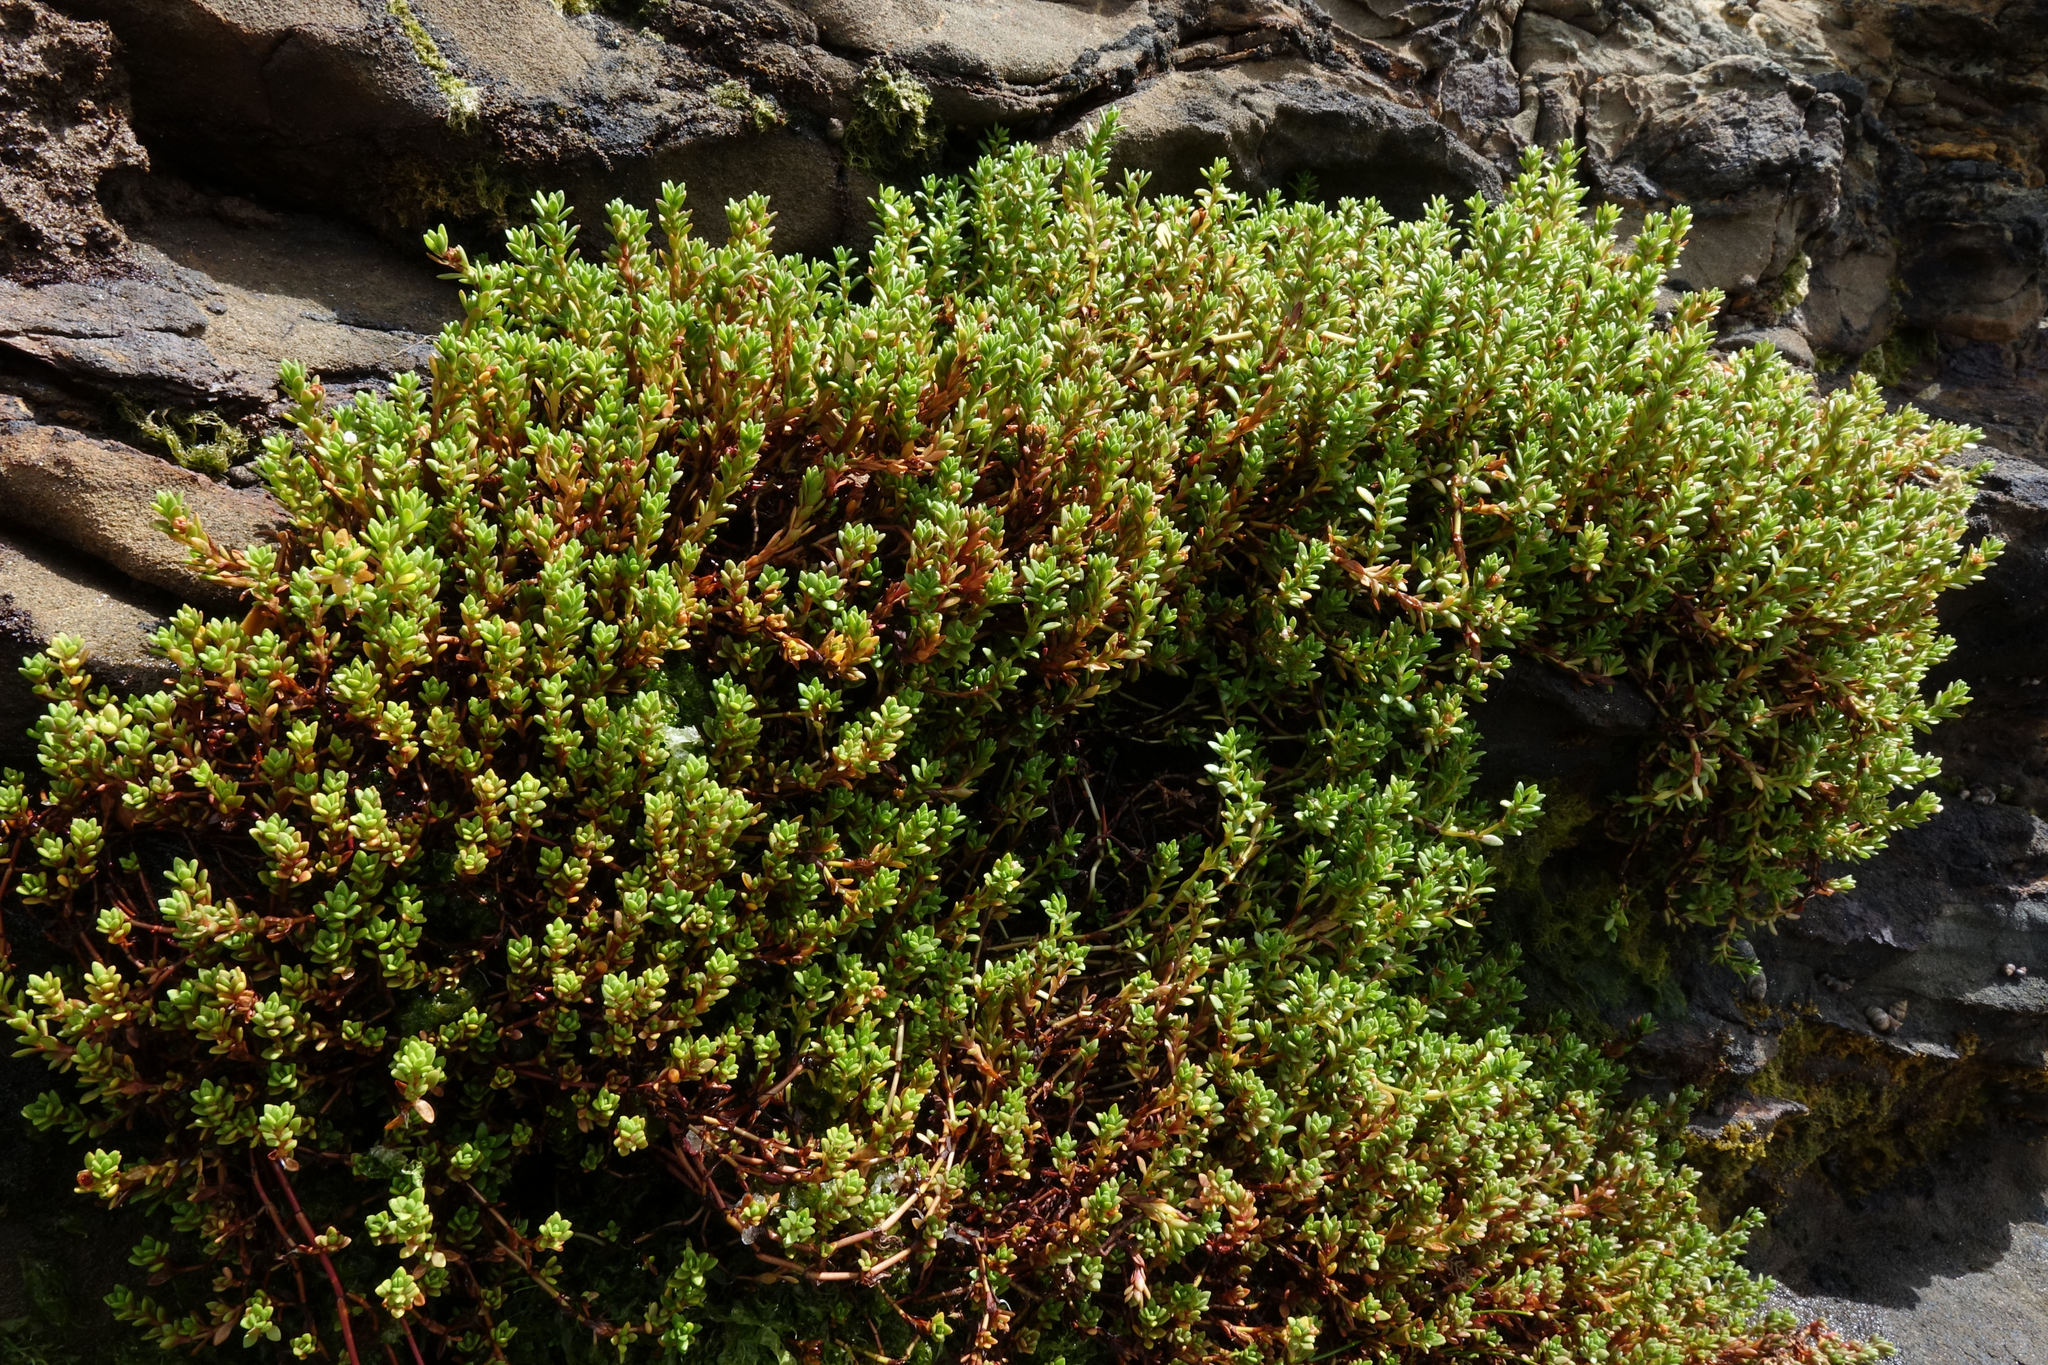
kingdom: Plantae
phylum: Tracheophyta
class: Magnoliopsida
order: Saxifragales
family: Crassulaceae
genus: Crassula
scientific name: Crassula moschata
